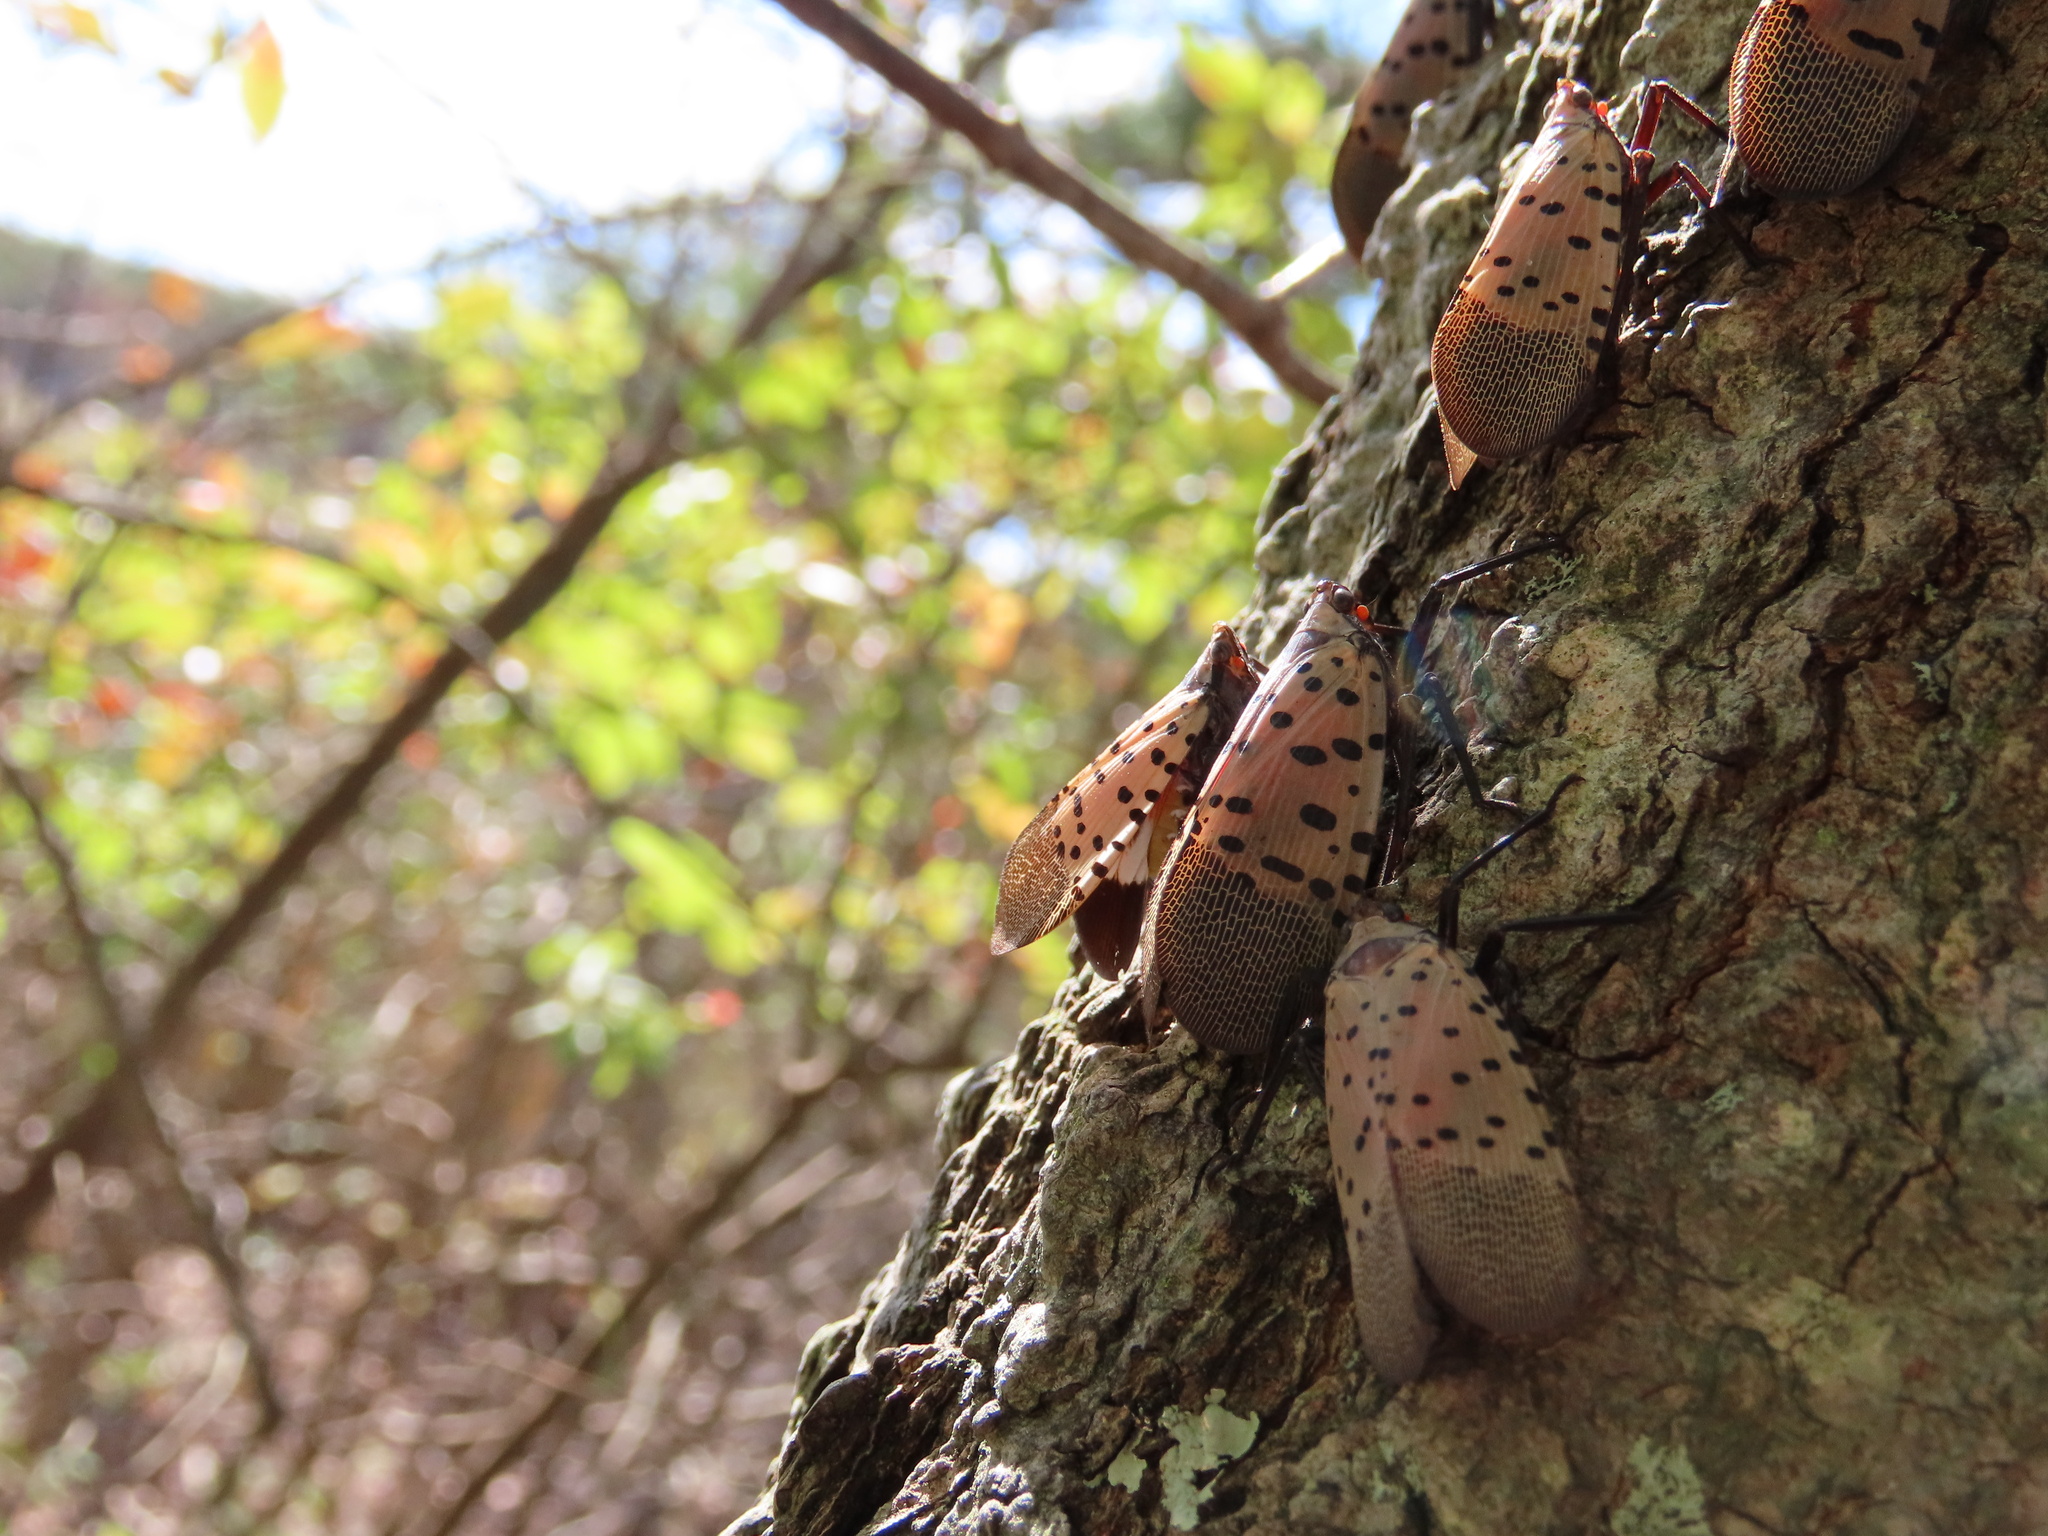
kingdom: Animalia
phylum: Arthropoda
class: Insecta
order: Hemiptera
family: Fulgoridae
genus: Lycorma
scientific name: Lycorma delicatula
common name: Spotted lanternfly
